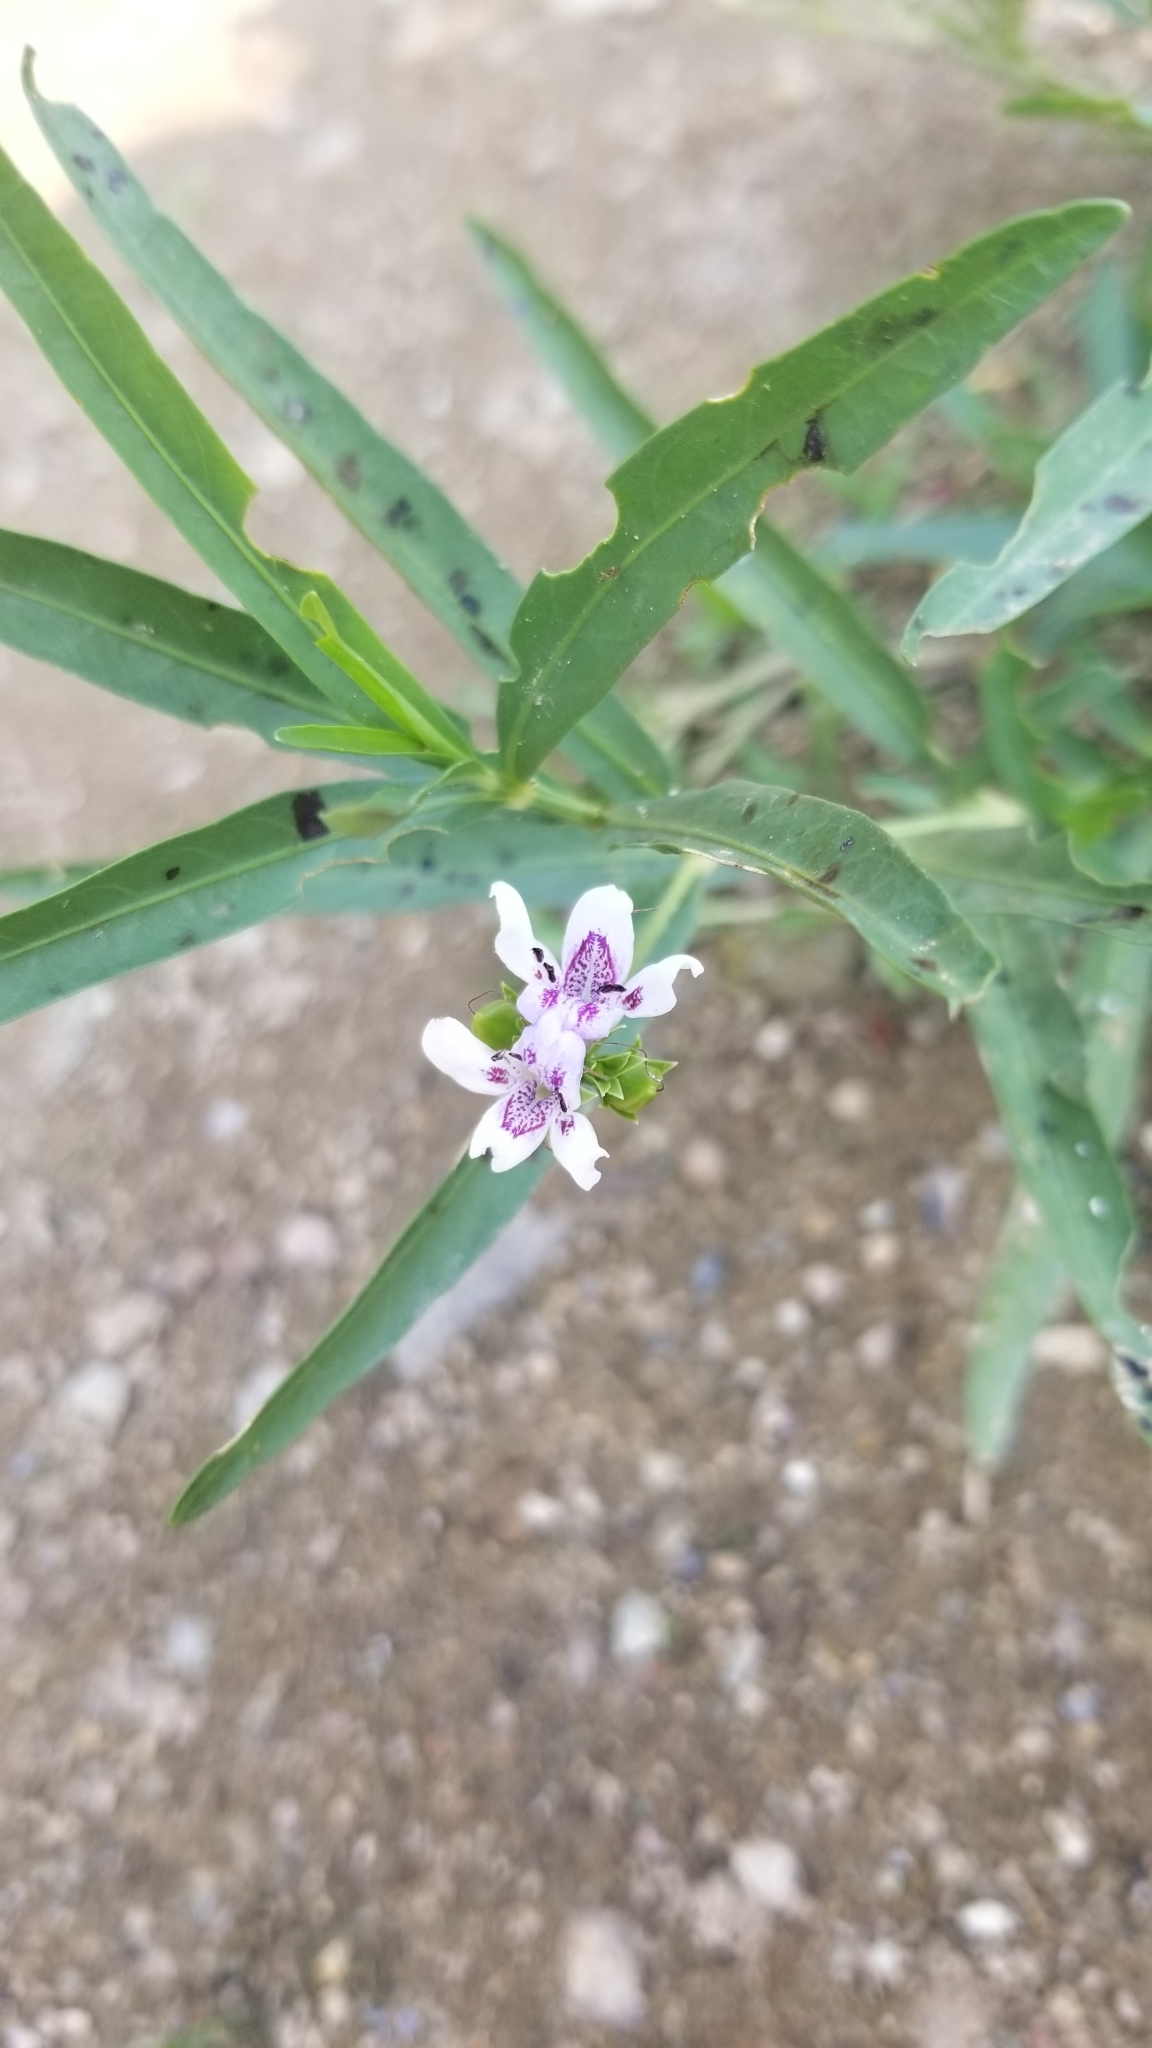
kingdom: Plantae
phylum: Tracheophyta
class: Magnoliopsida
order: Lamiales
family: Acanthaceae
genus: Dianthera
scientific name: Dianthera americana
